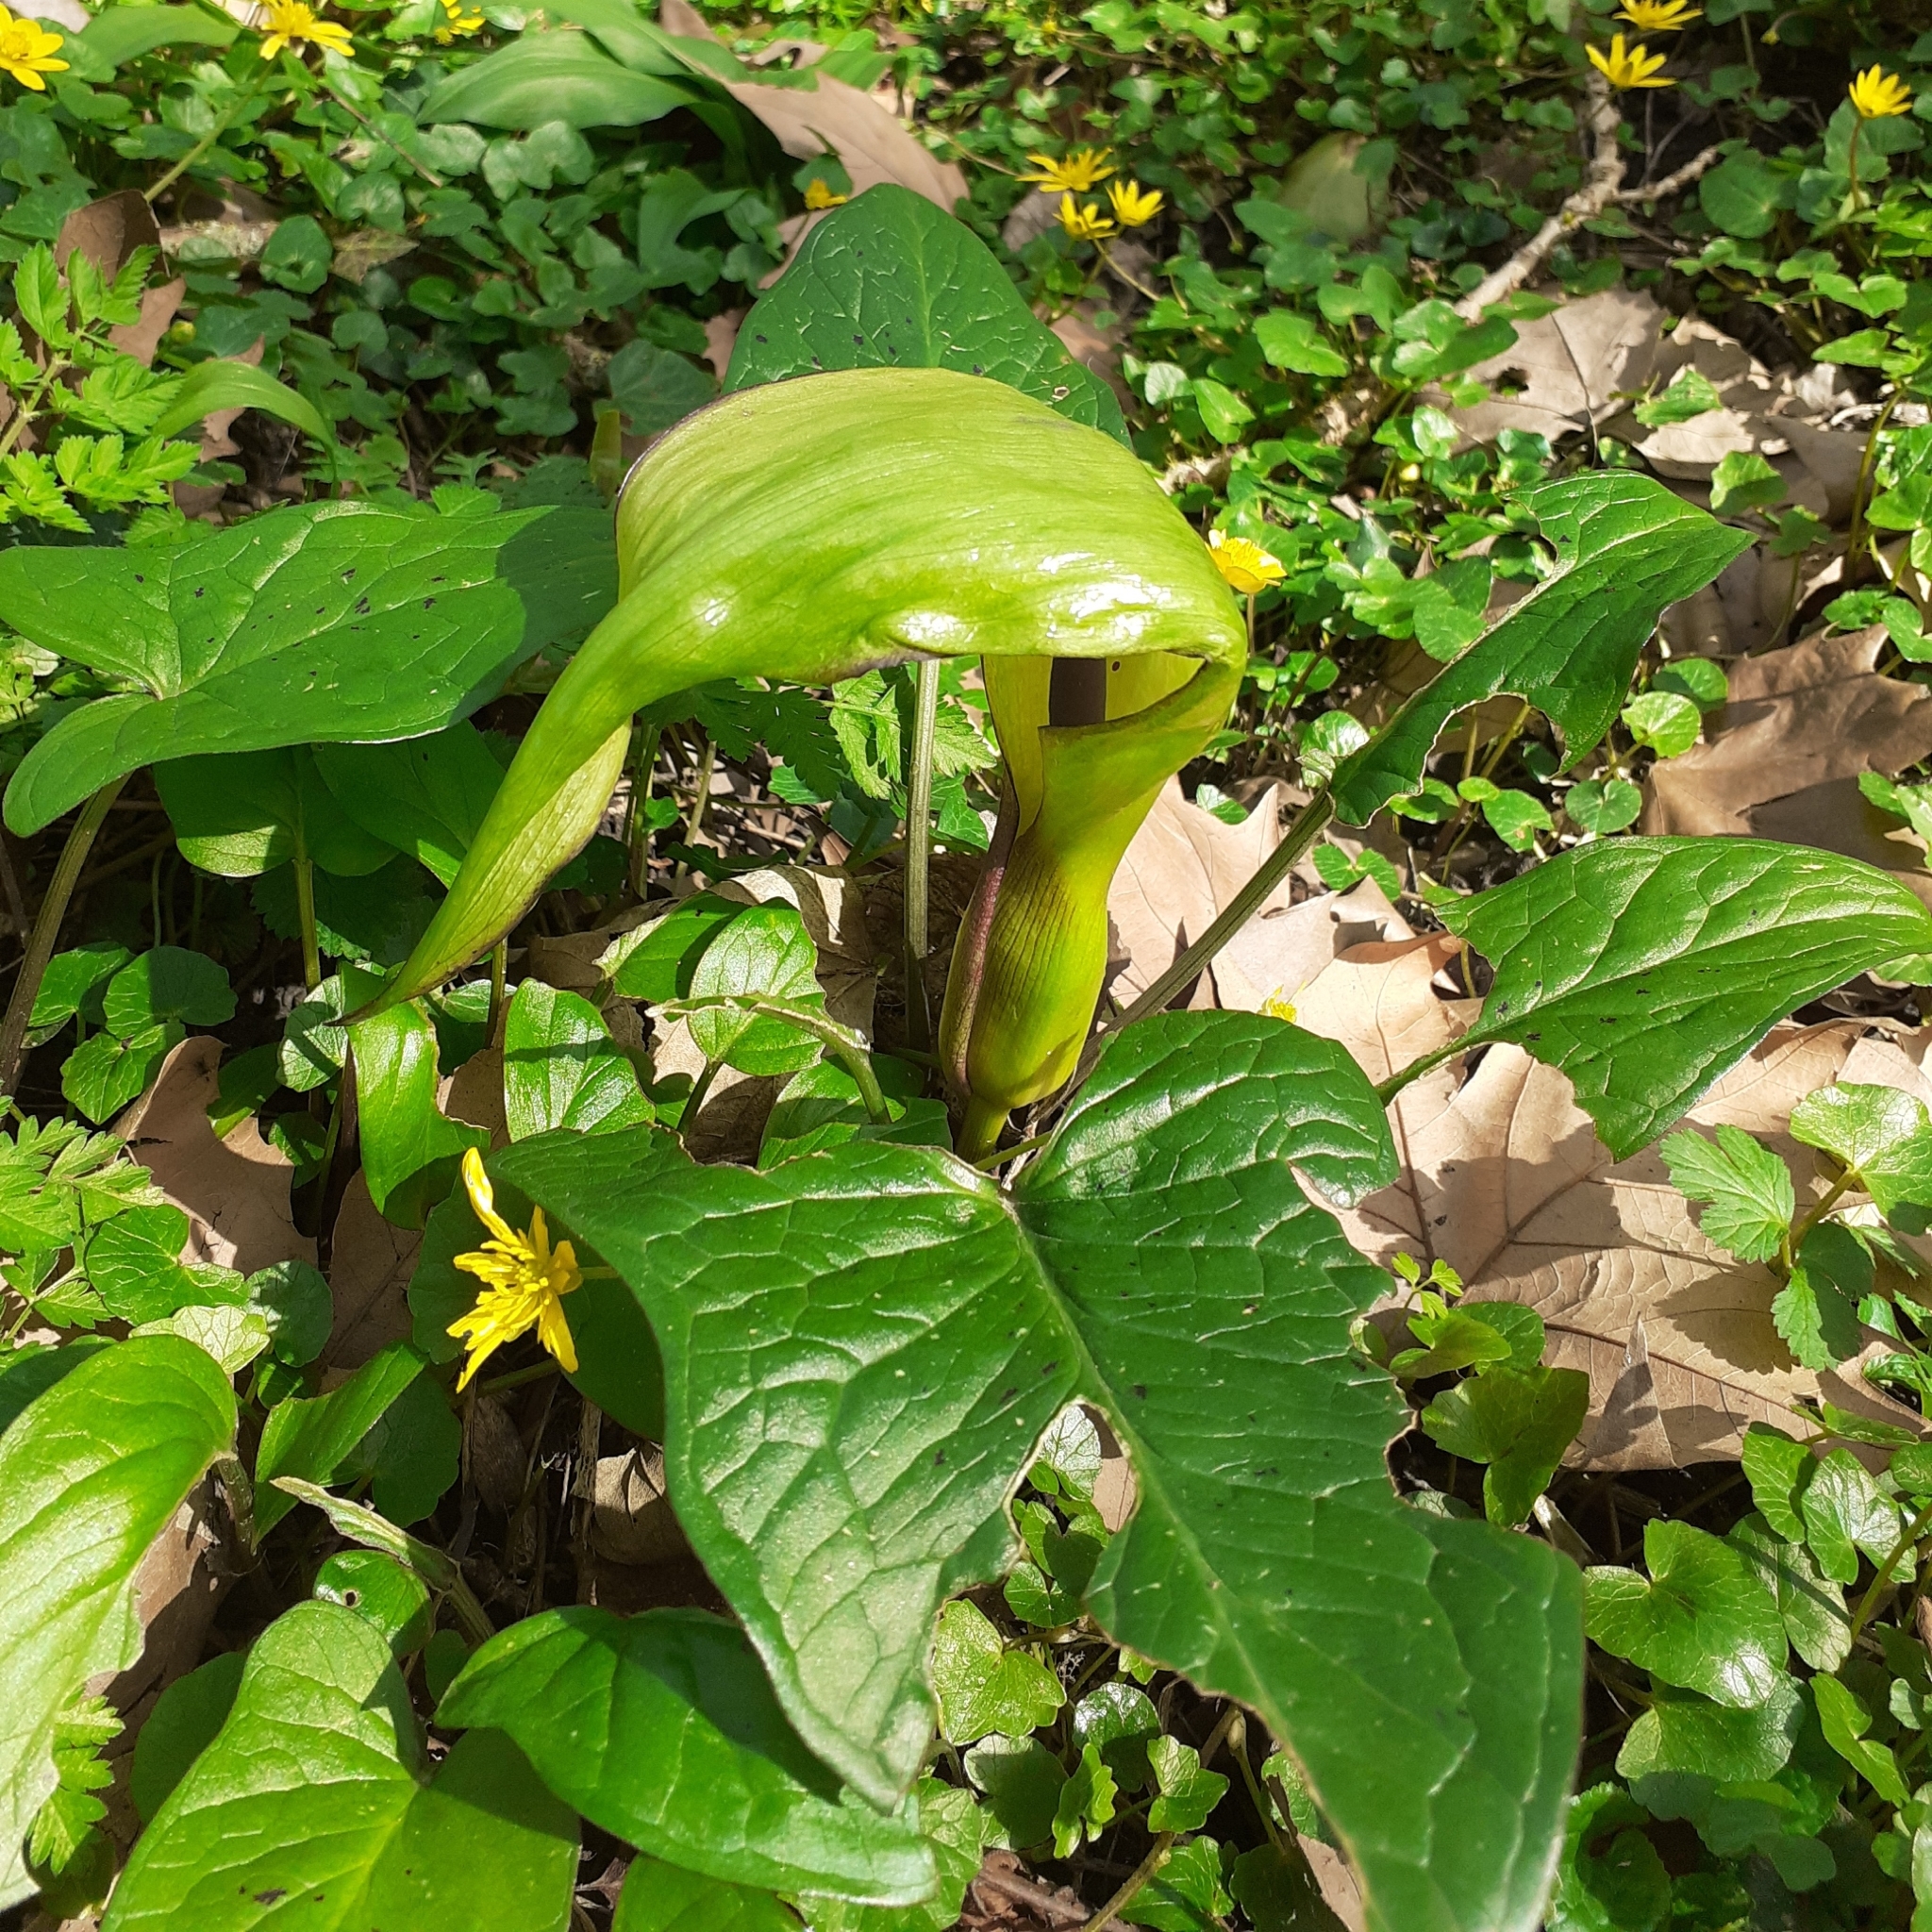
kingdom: Plantae
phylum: Tracheophyta
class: Liliopsida
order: Alismatales
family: Araceae
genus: Arum
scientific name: Arum maculatum
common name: Lords-and-ladies
